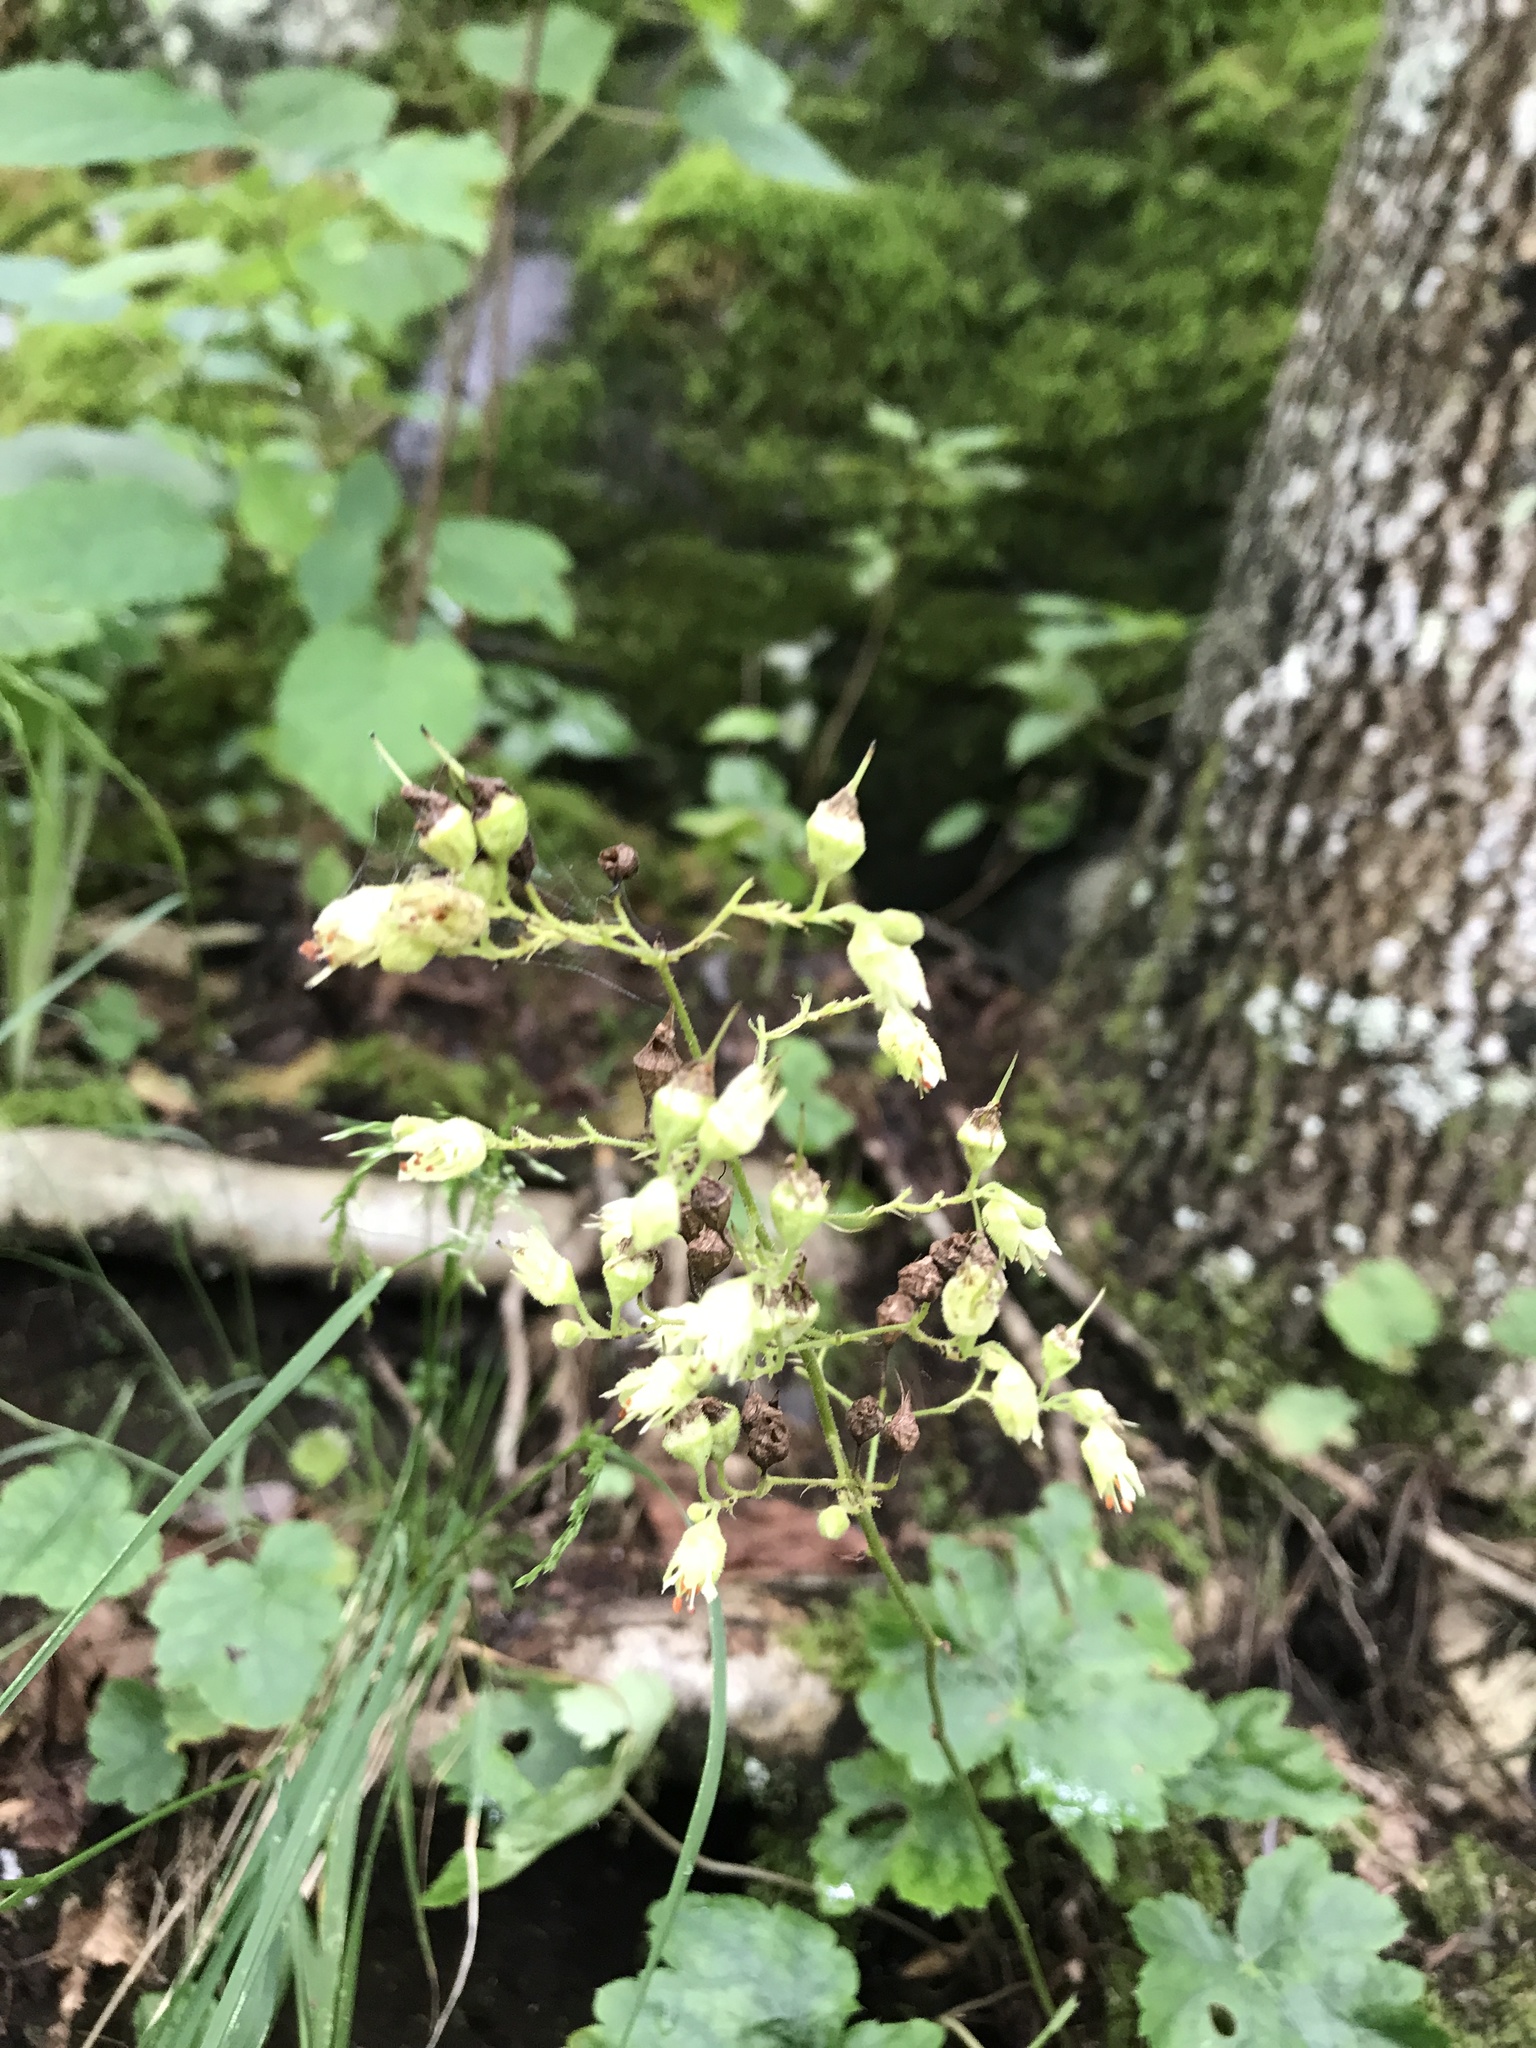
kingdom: Plantae
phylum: Tracheophyta
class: Magnoliopsida
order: Saxifragales
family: Saxifragaceae
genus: Heuchera
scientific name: Heuchera alba
